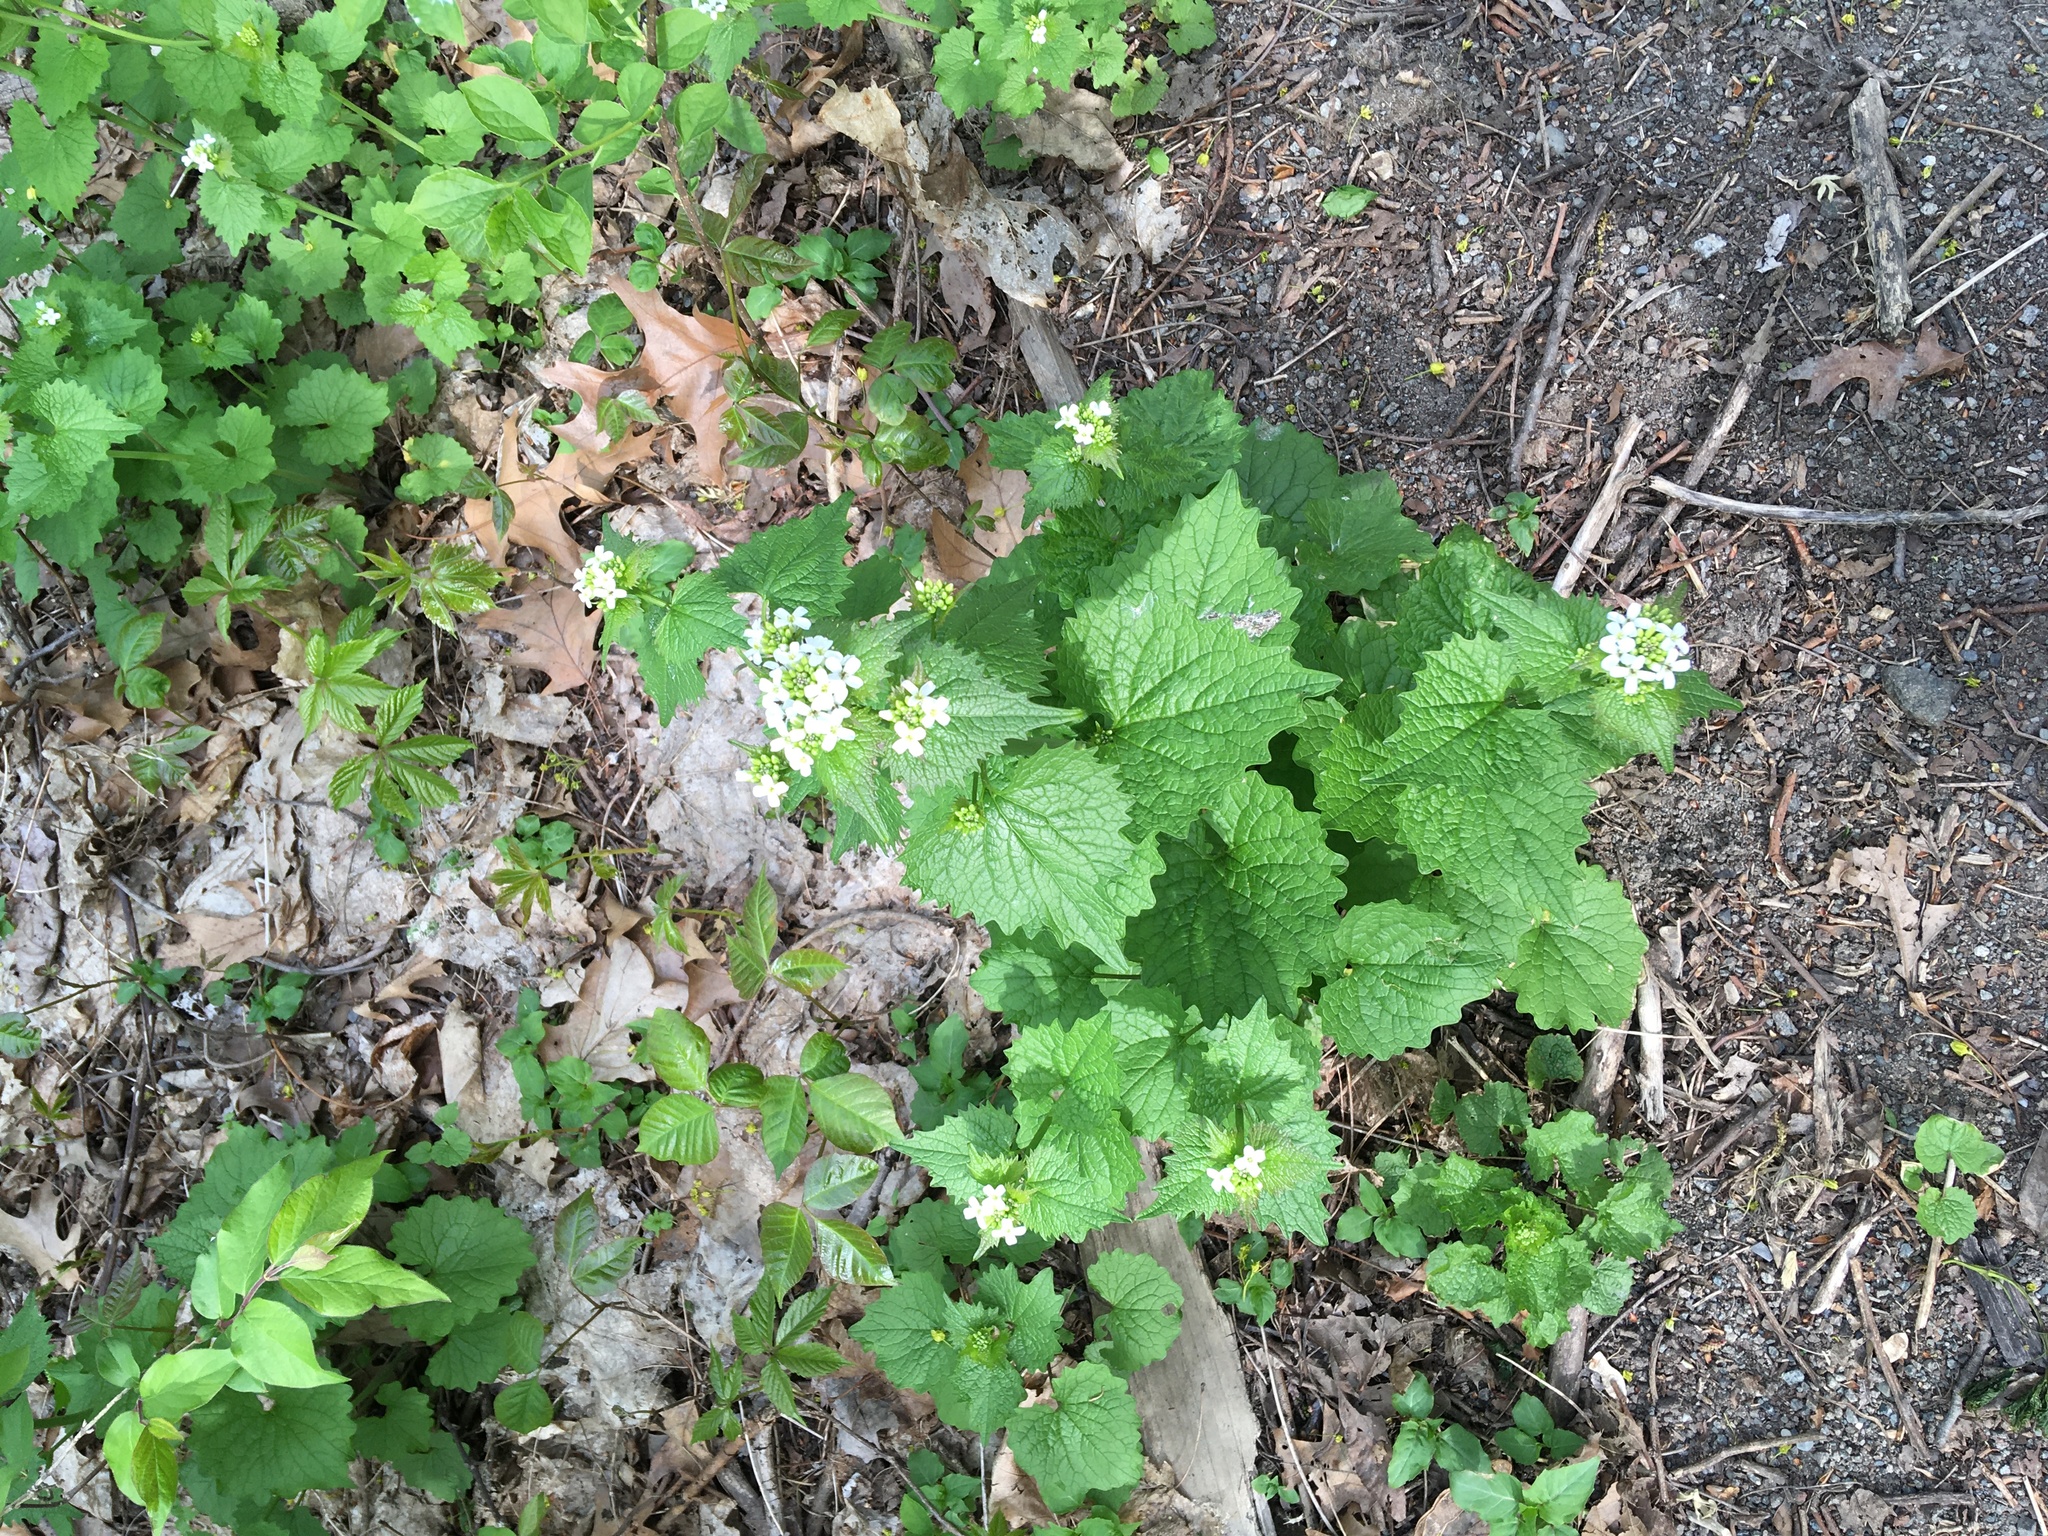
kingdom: Plantae
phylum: Tracheophyta
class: Magnoliopsida
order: Brassicales
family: Brassicaceae
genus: Alliaria
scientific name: Alliaria petiolata
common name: Garlic mustard
